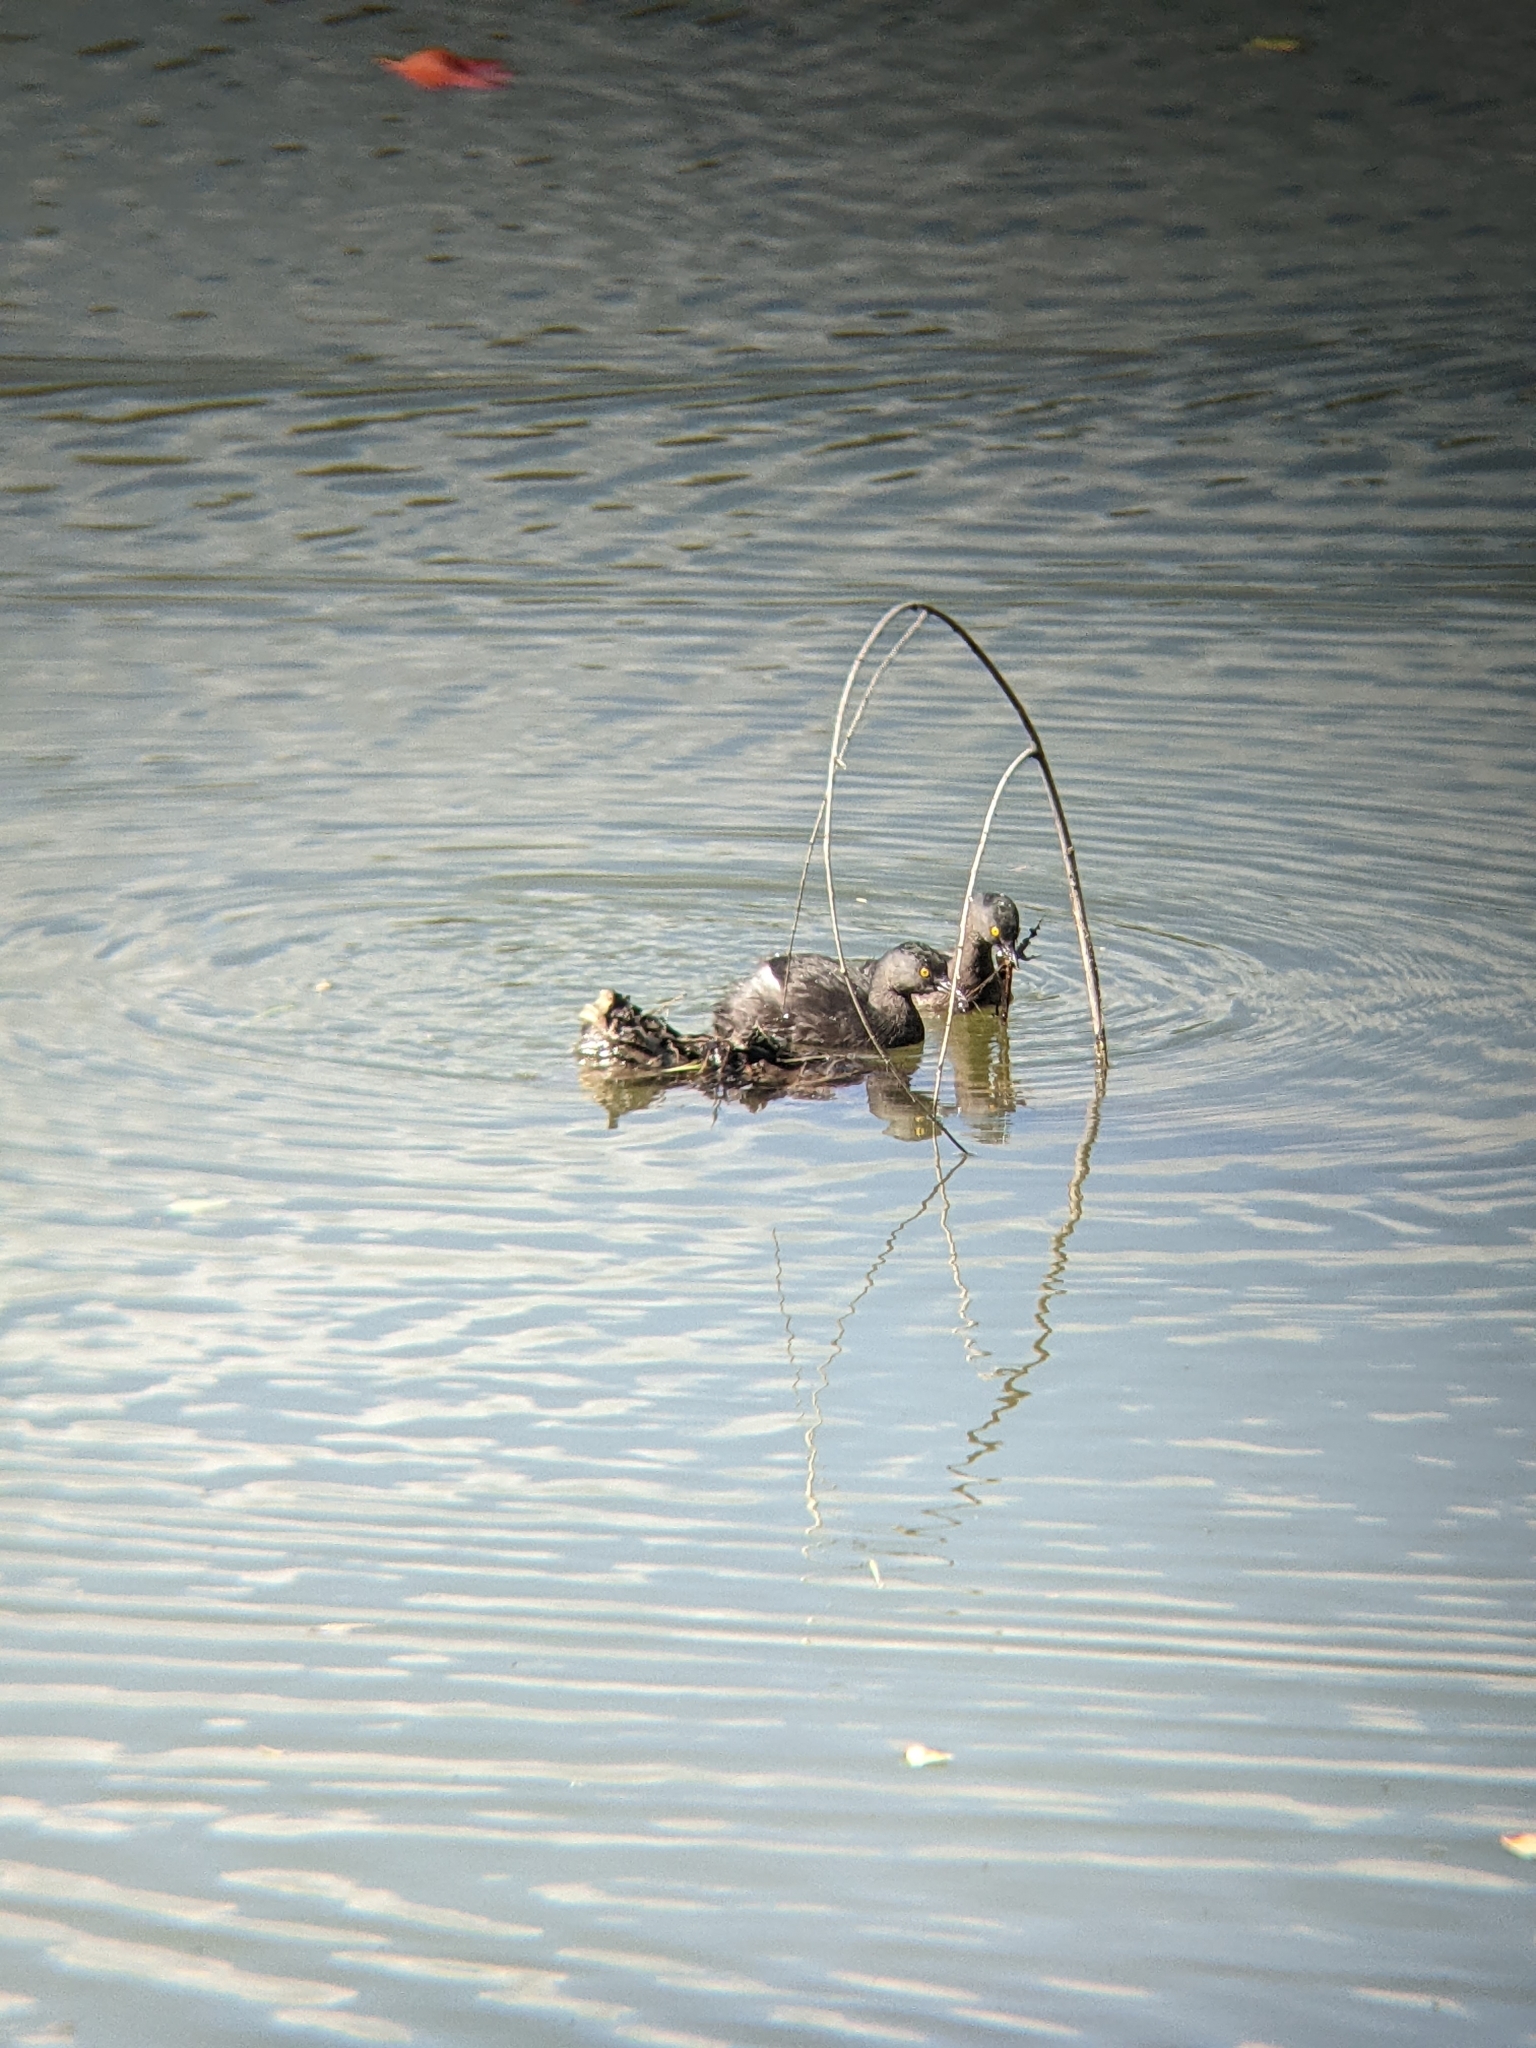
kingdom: Animalia
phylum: Chordata
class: Aves
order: Podicipediformes
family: Podicipedidae
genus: Tachybaptus
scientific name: Tachybaptus dominicus
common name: Least grebe
